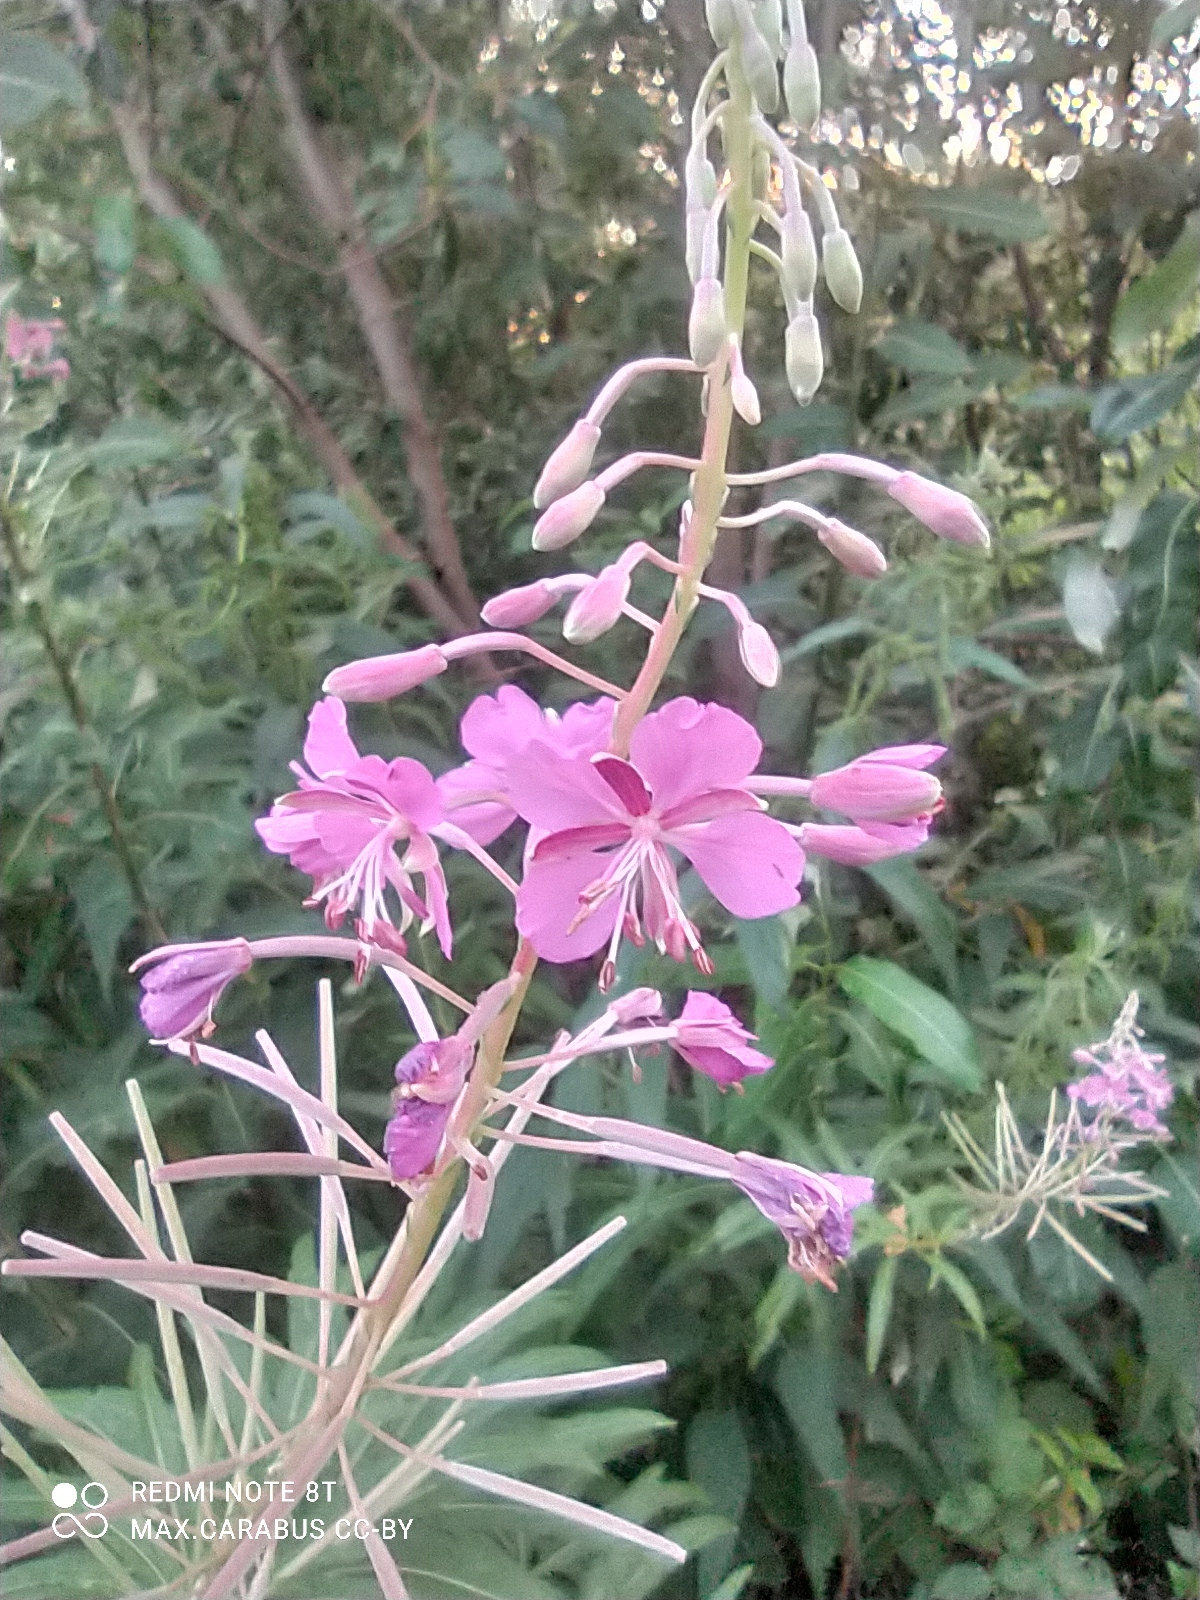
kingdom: Plantae
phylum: Tracheophyta
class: Magnoliopsida
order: Myrtales
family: Onagraceae
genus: Chamaenerion
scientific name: Chamaenerion angustifolium
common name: Fireweed
